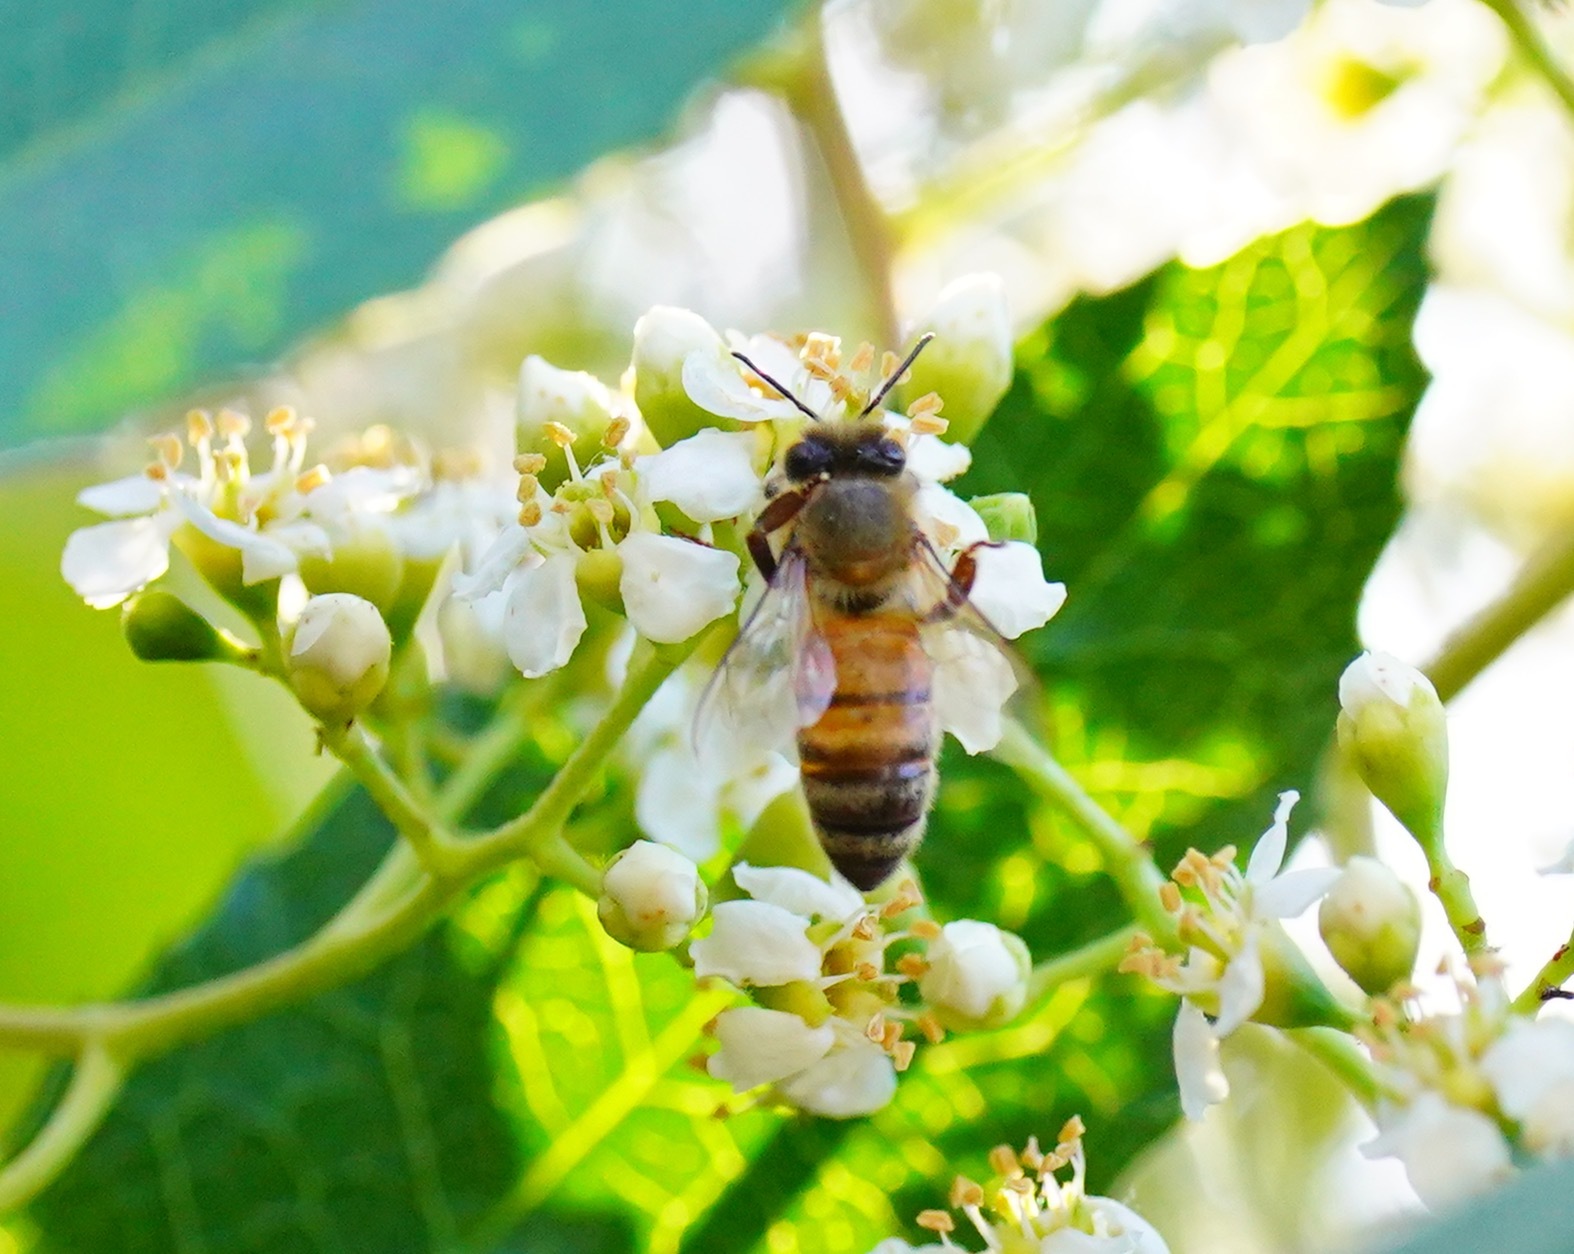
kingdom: Animalia
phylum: Arthropoda
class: Insecta
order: Hymenoptera
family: Apidae
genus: Apis
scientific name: Apis mellifera
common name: Honey bee
